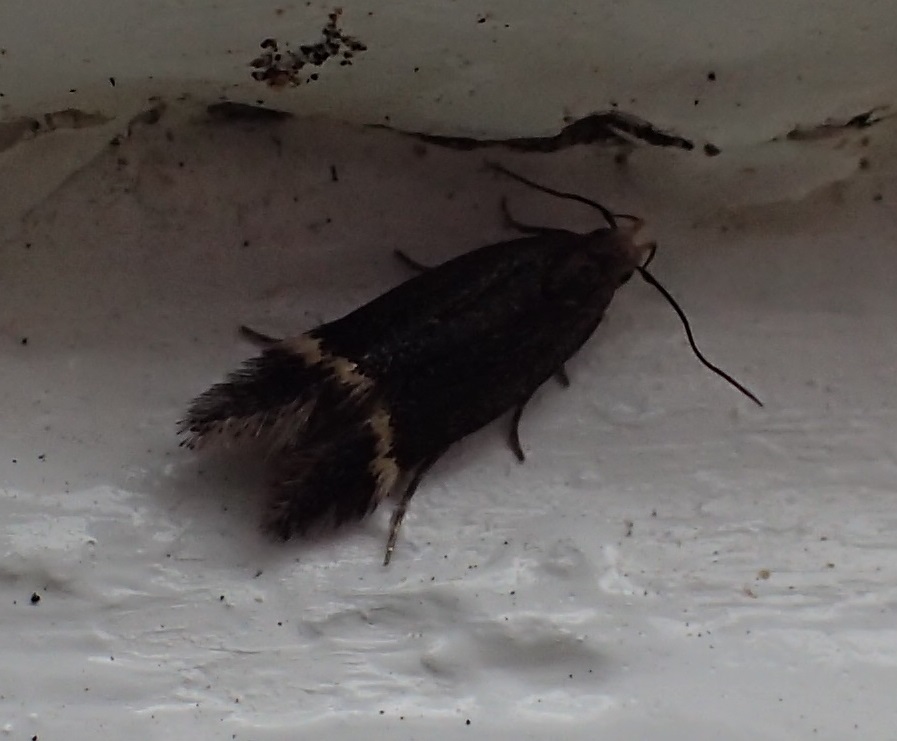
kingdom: Animalia
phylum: Arthropoda
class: Insecta
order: Lepidoptera
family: Gelechiidae
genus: Aproaerema
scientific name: Aproaerema simplexella
